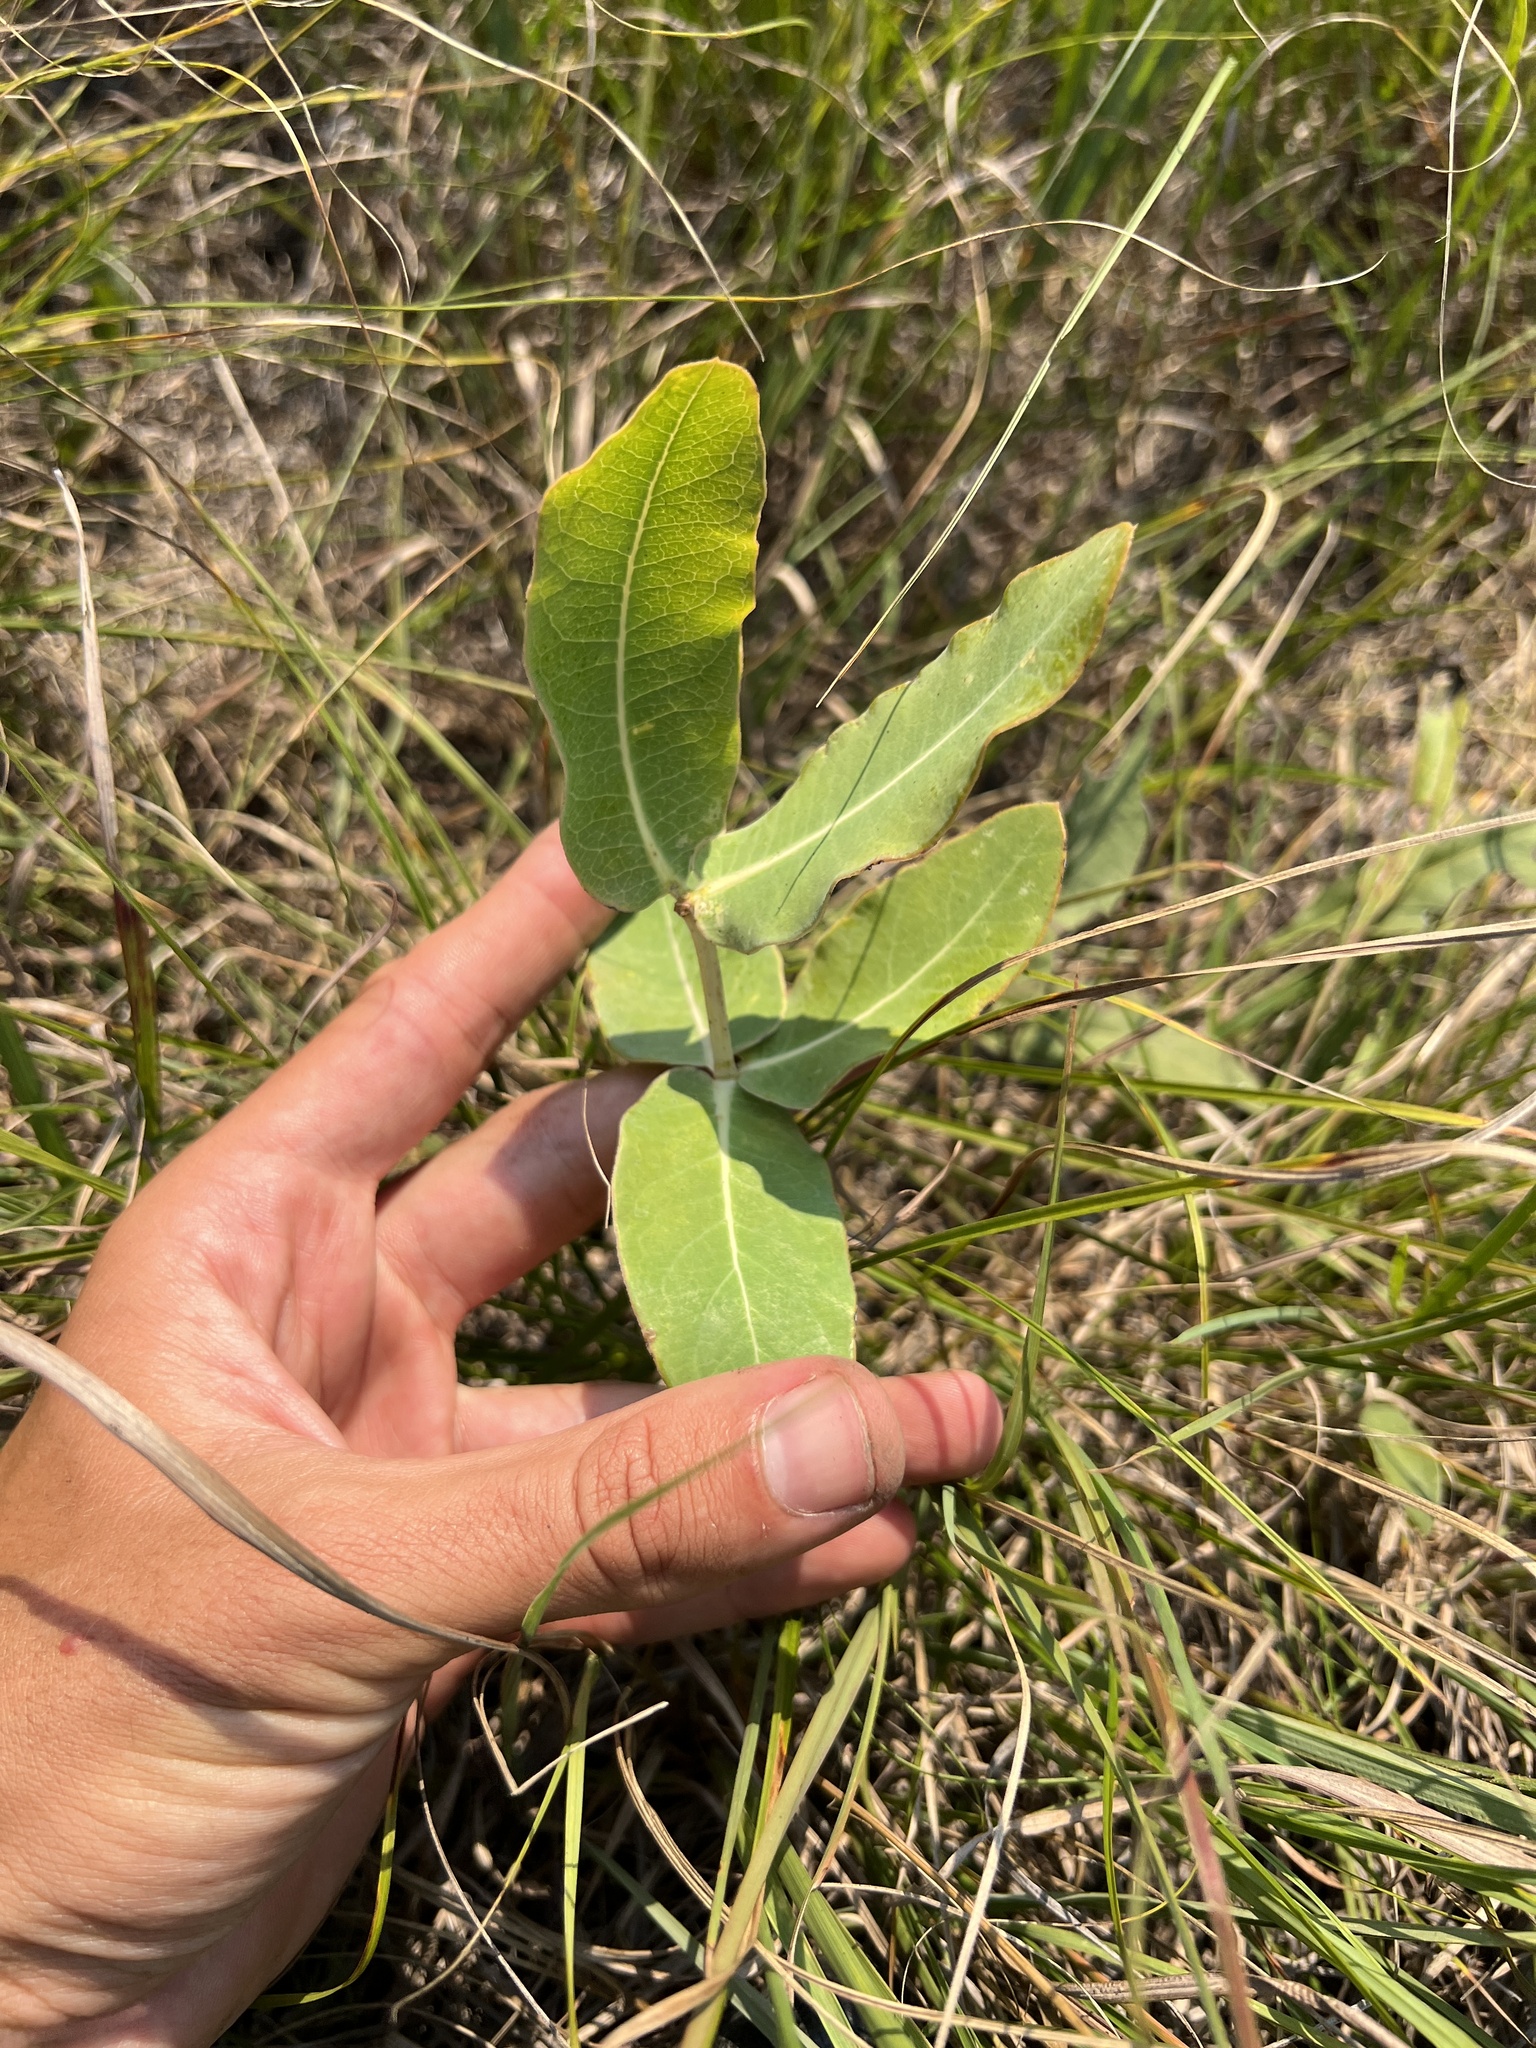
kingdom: Plantae
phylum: Tracheophyta
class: Magnoliopsida
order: Gentianales
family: Apocynaceae
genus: Asclepias
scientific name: Asclepias meadii
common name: Mead's milkweed
